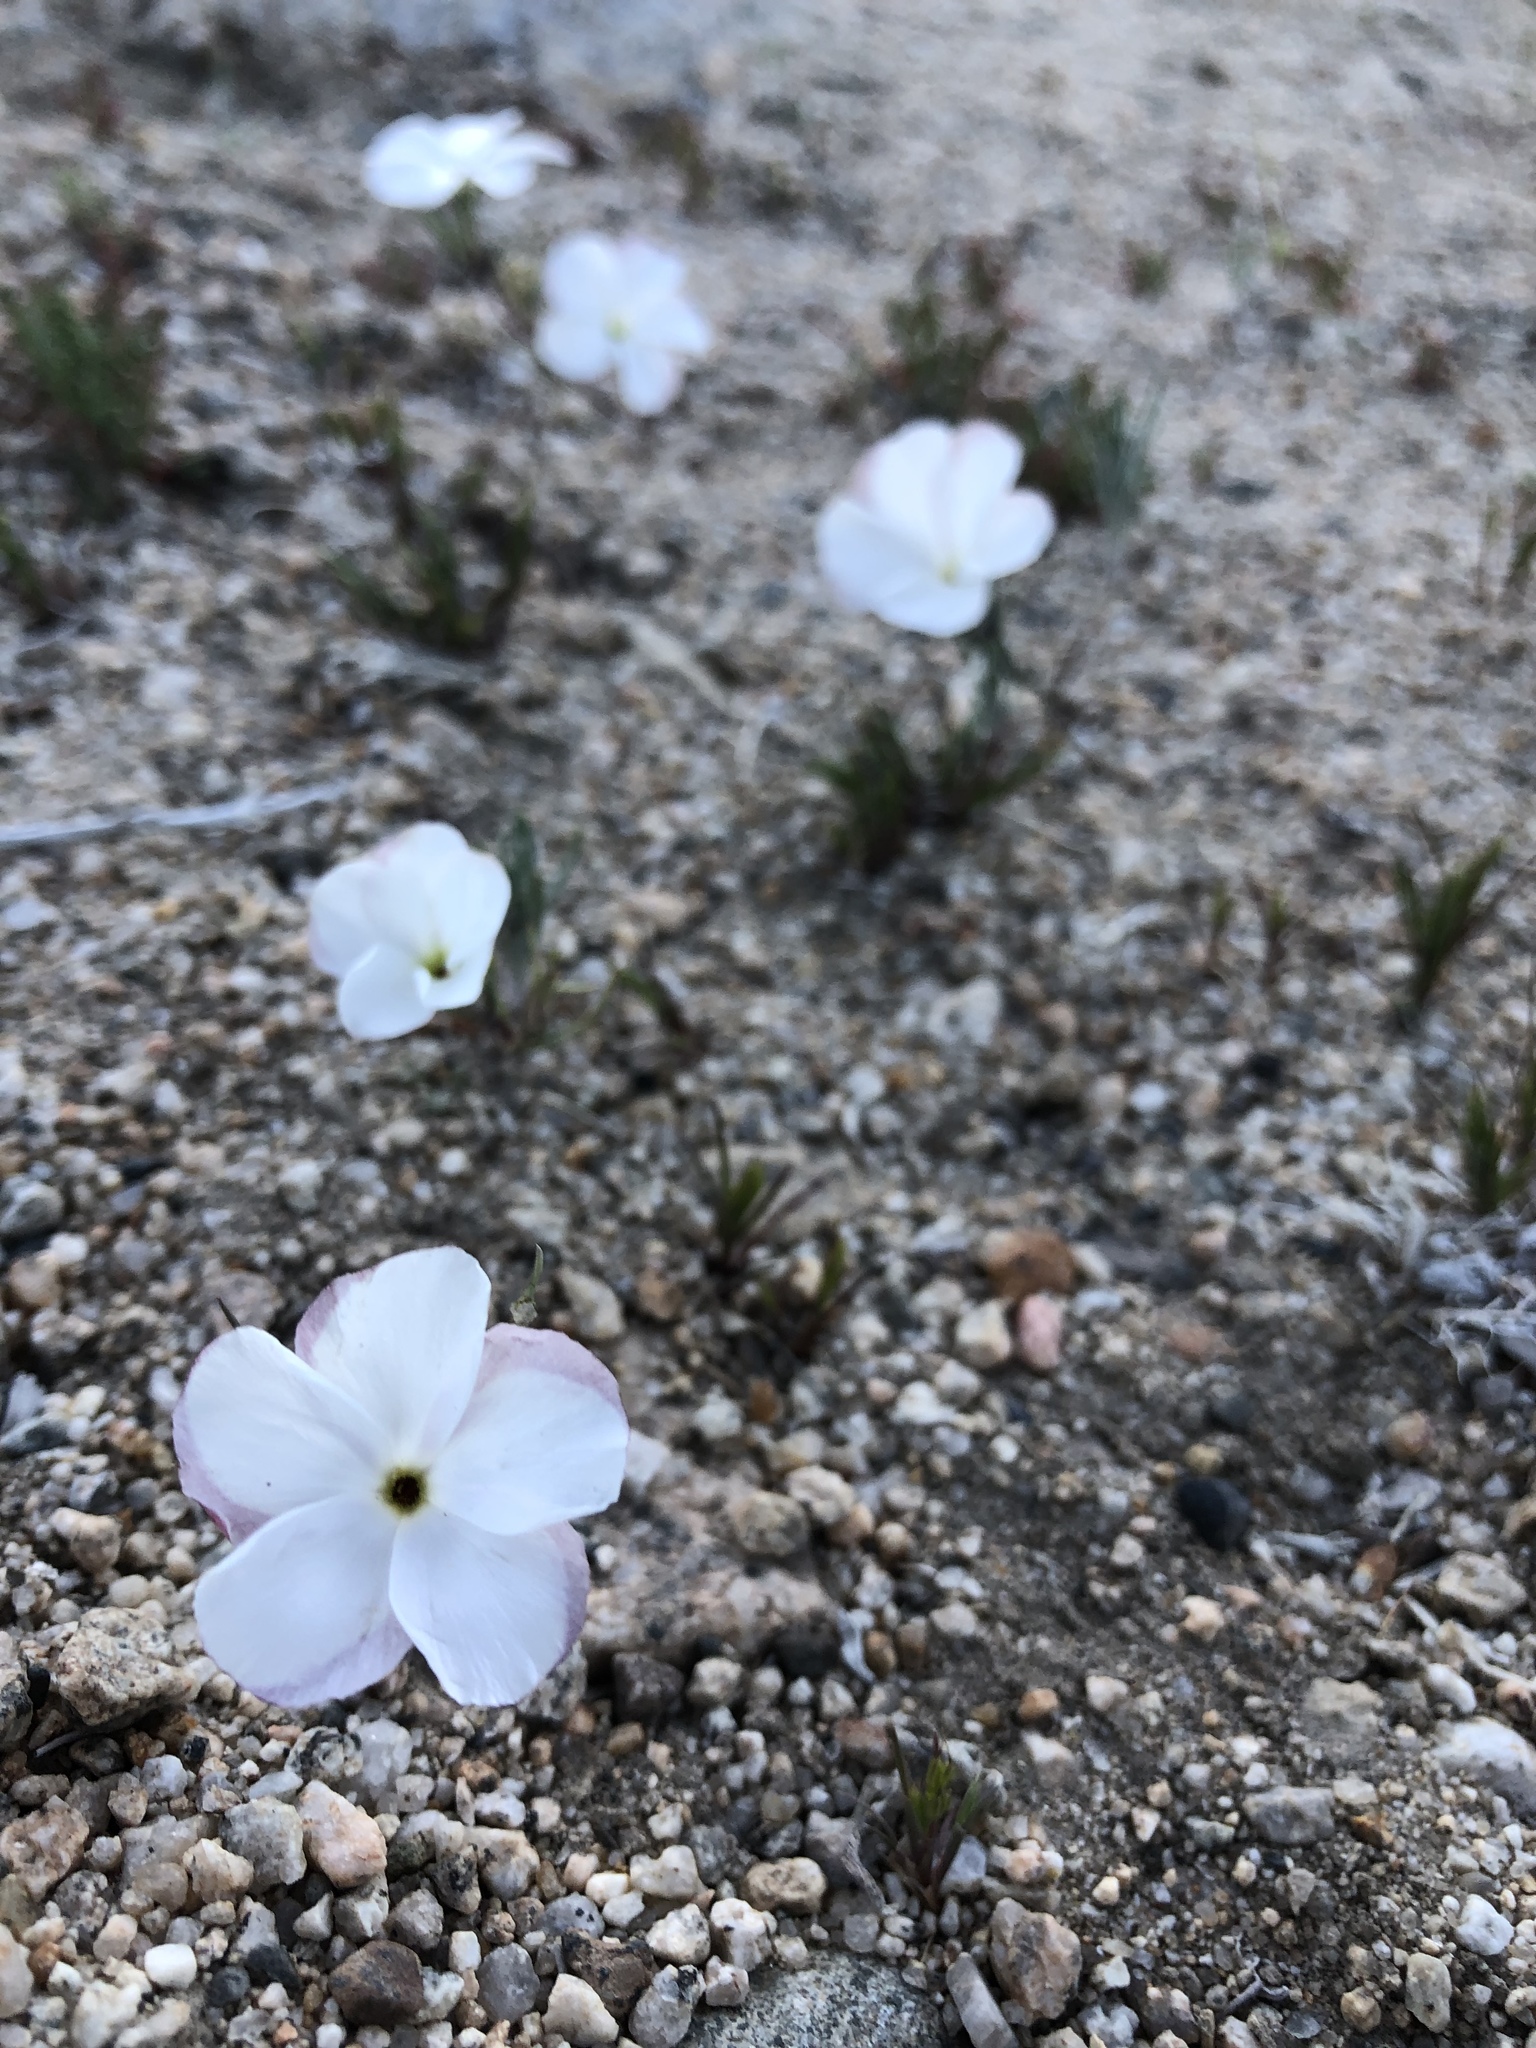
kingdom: Plantae
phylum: Tracheophyta
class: Magnoliopsida
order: Ericales
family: Polemoniaceae
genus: Linanthus
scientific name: Linanthus dichotomus
